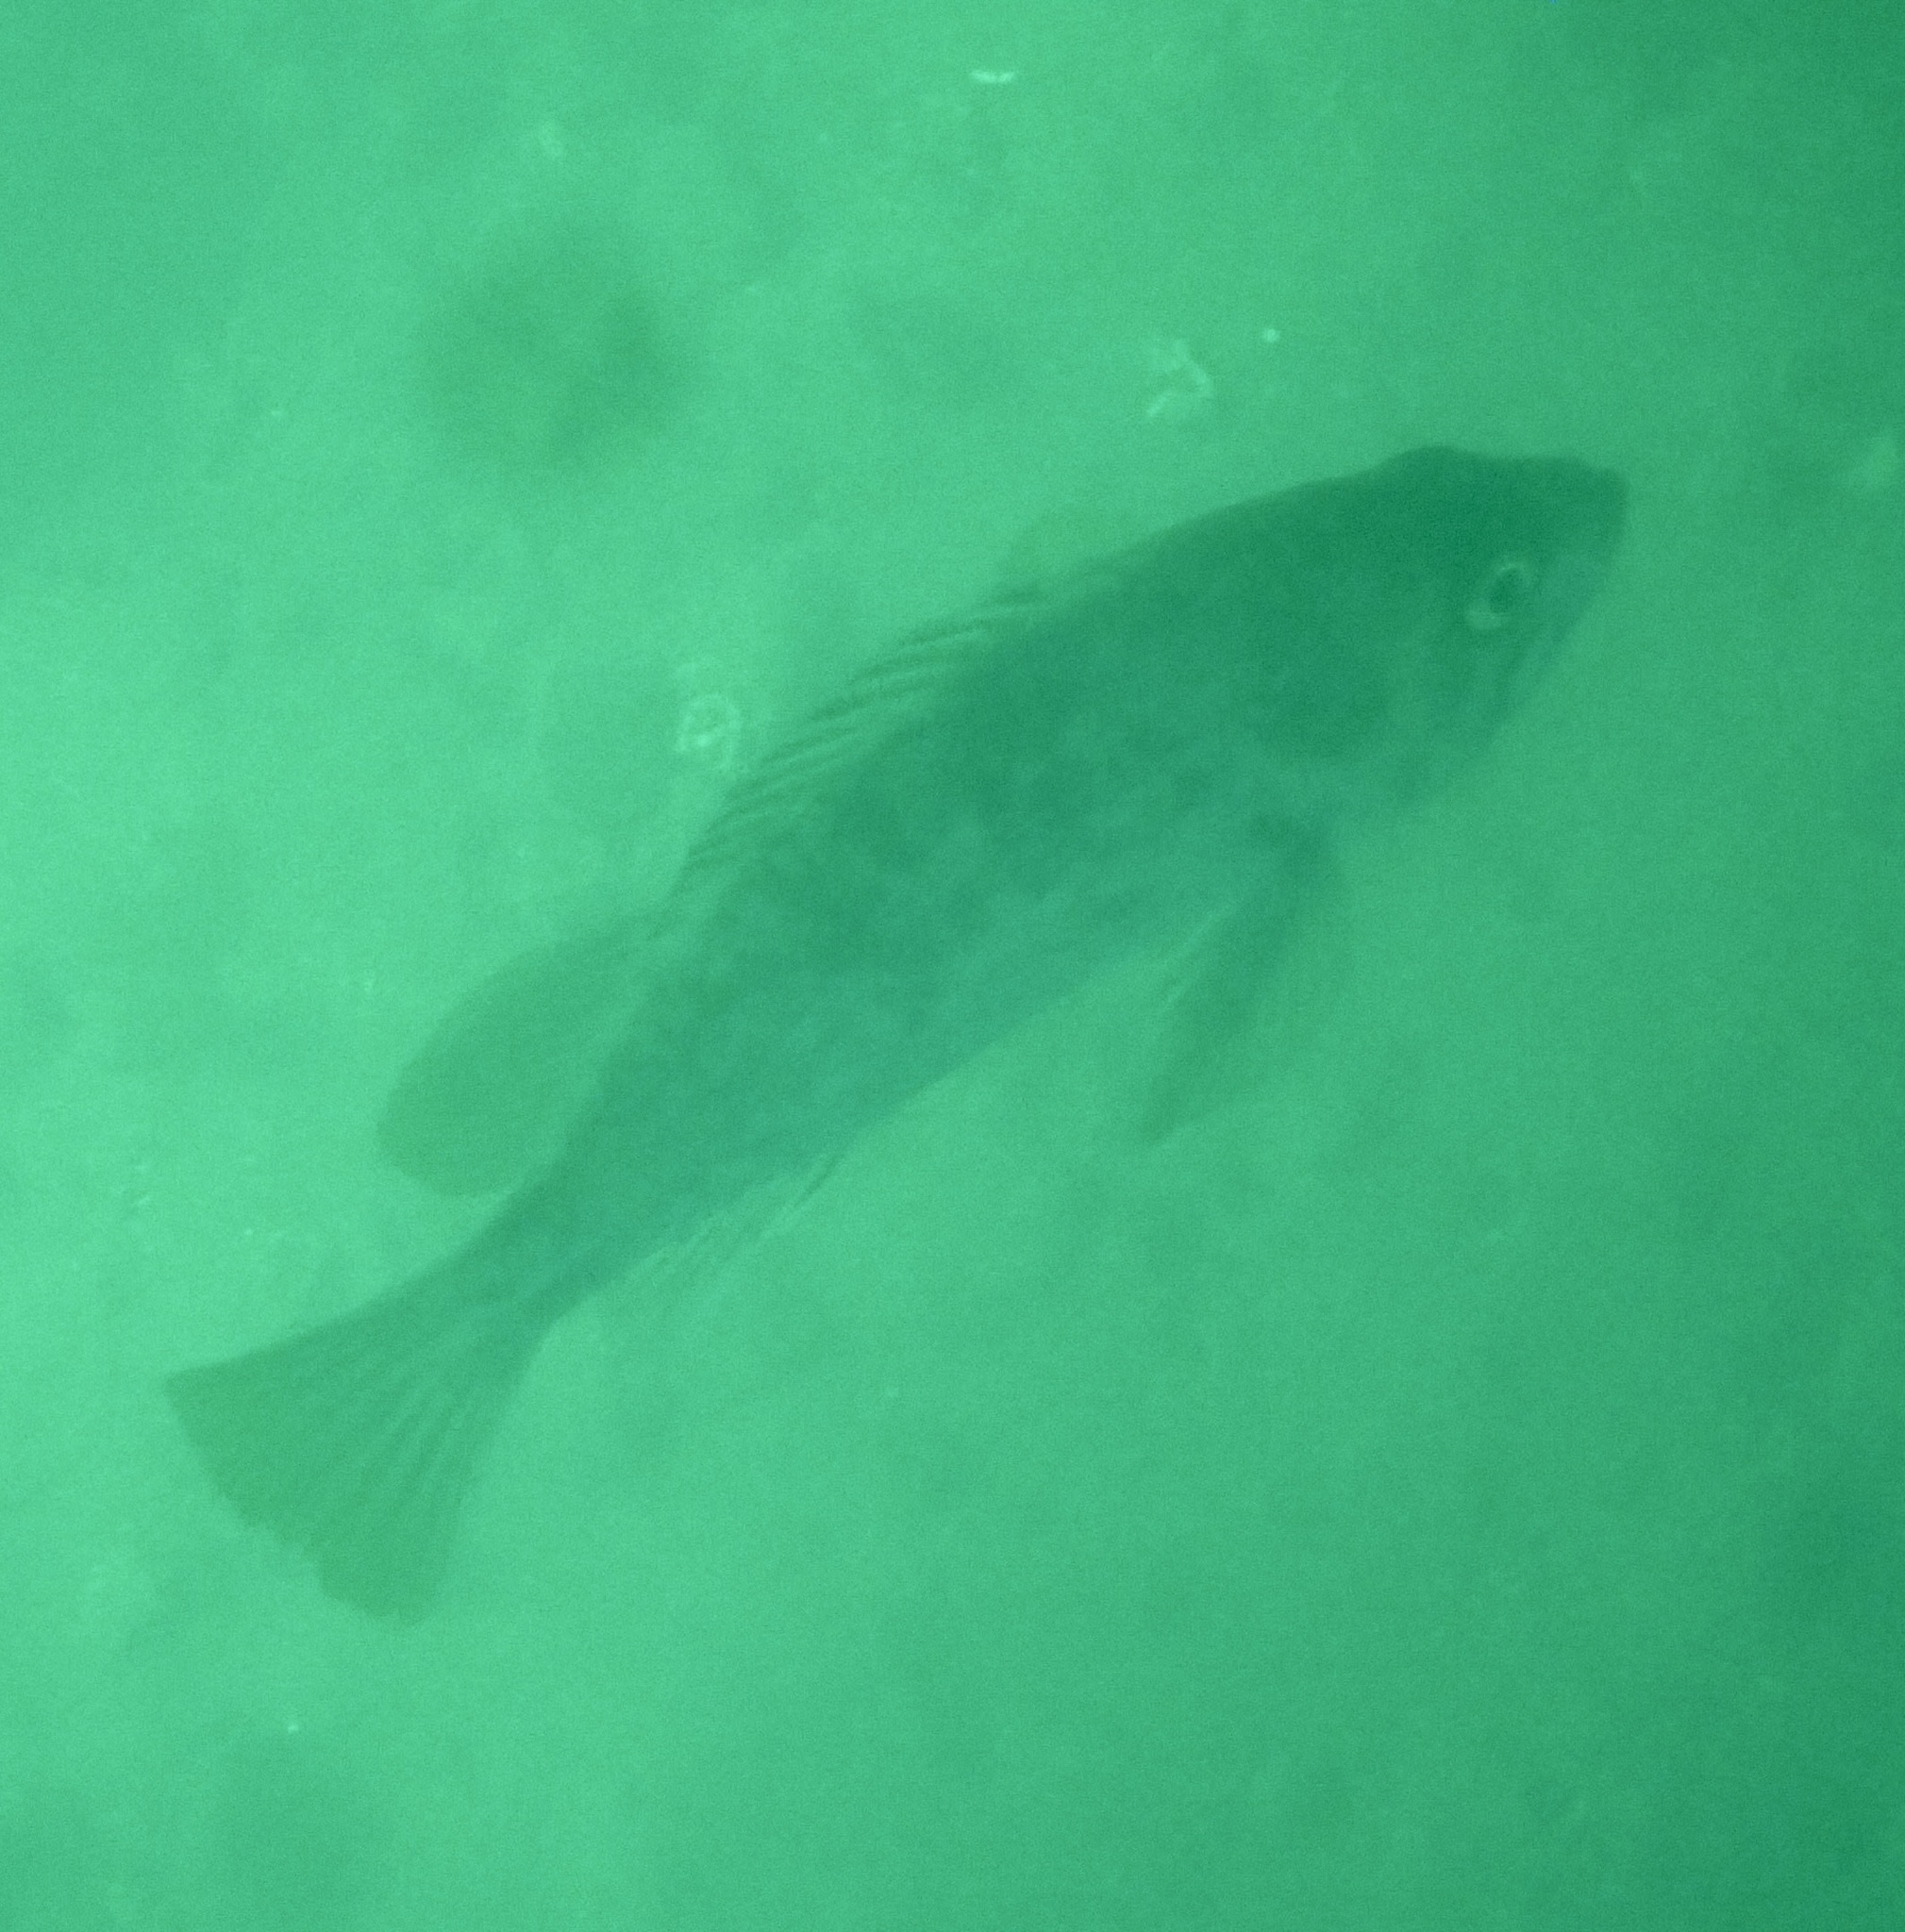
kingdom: Animalia
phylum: Chordata
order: Scorpaeniformes
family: Sebastidae
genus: Sebastes
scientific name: Sebastes atrovirens
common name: Kelp rockfish
